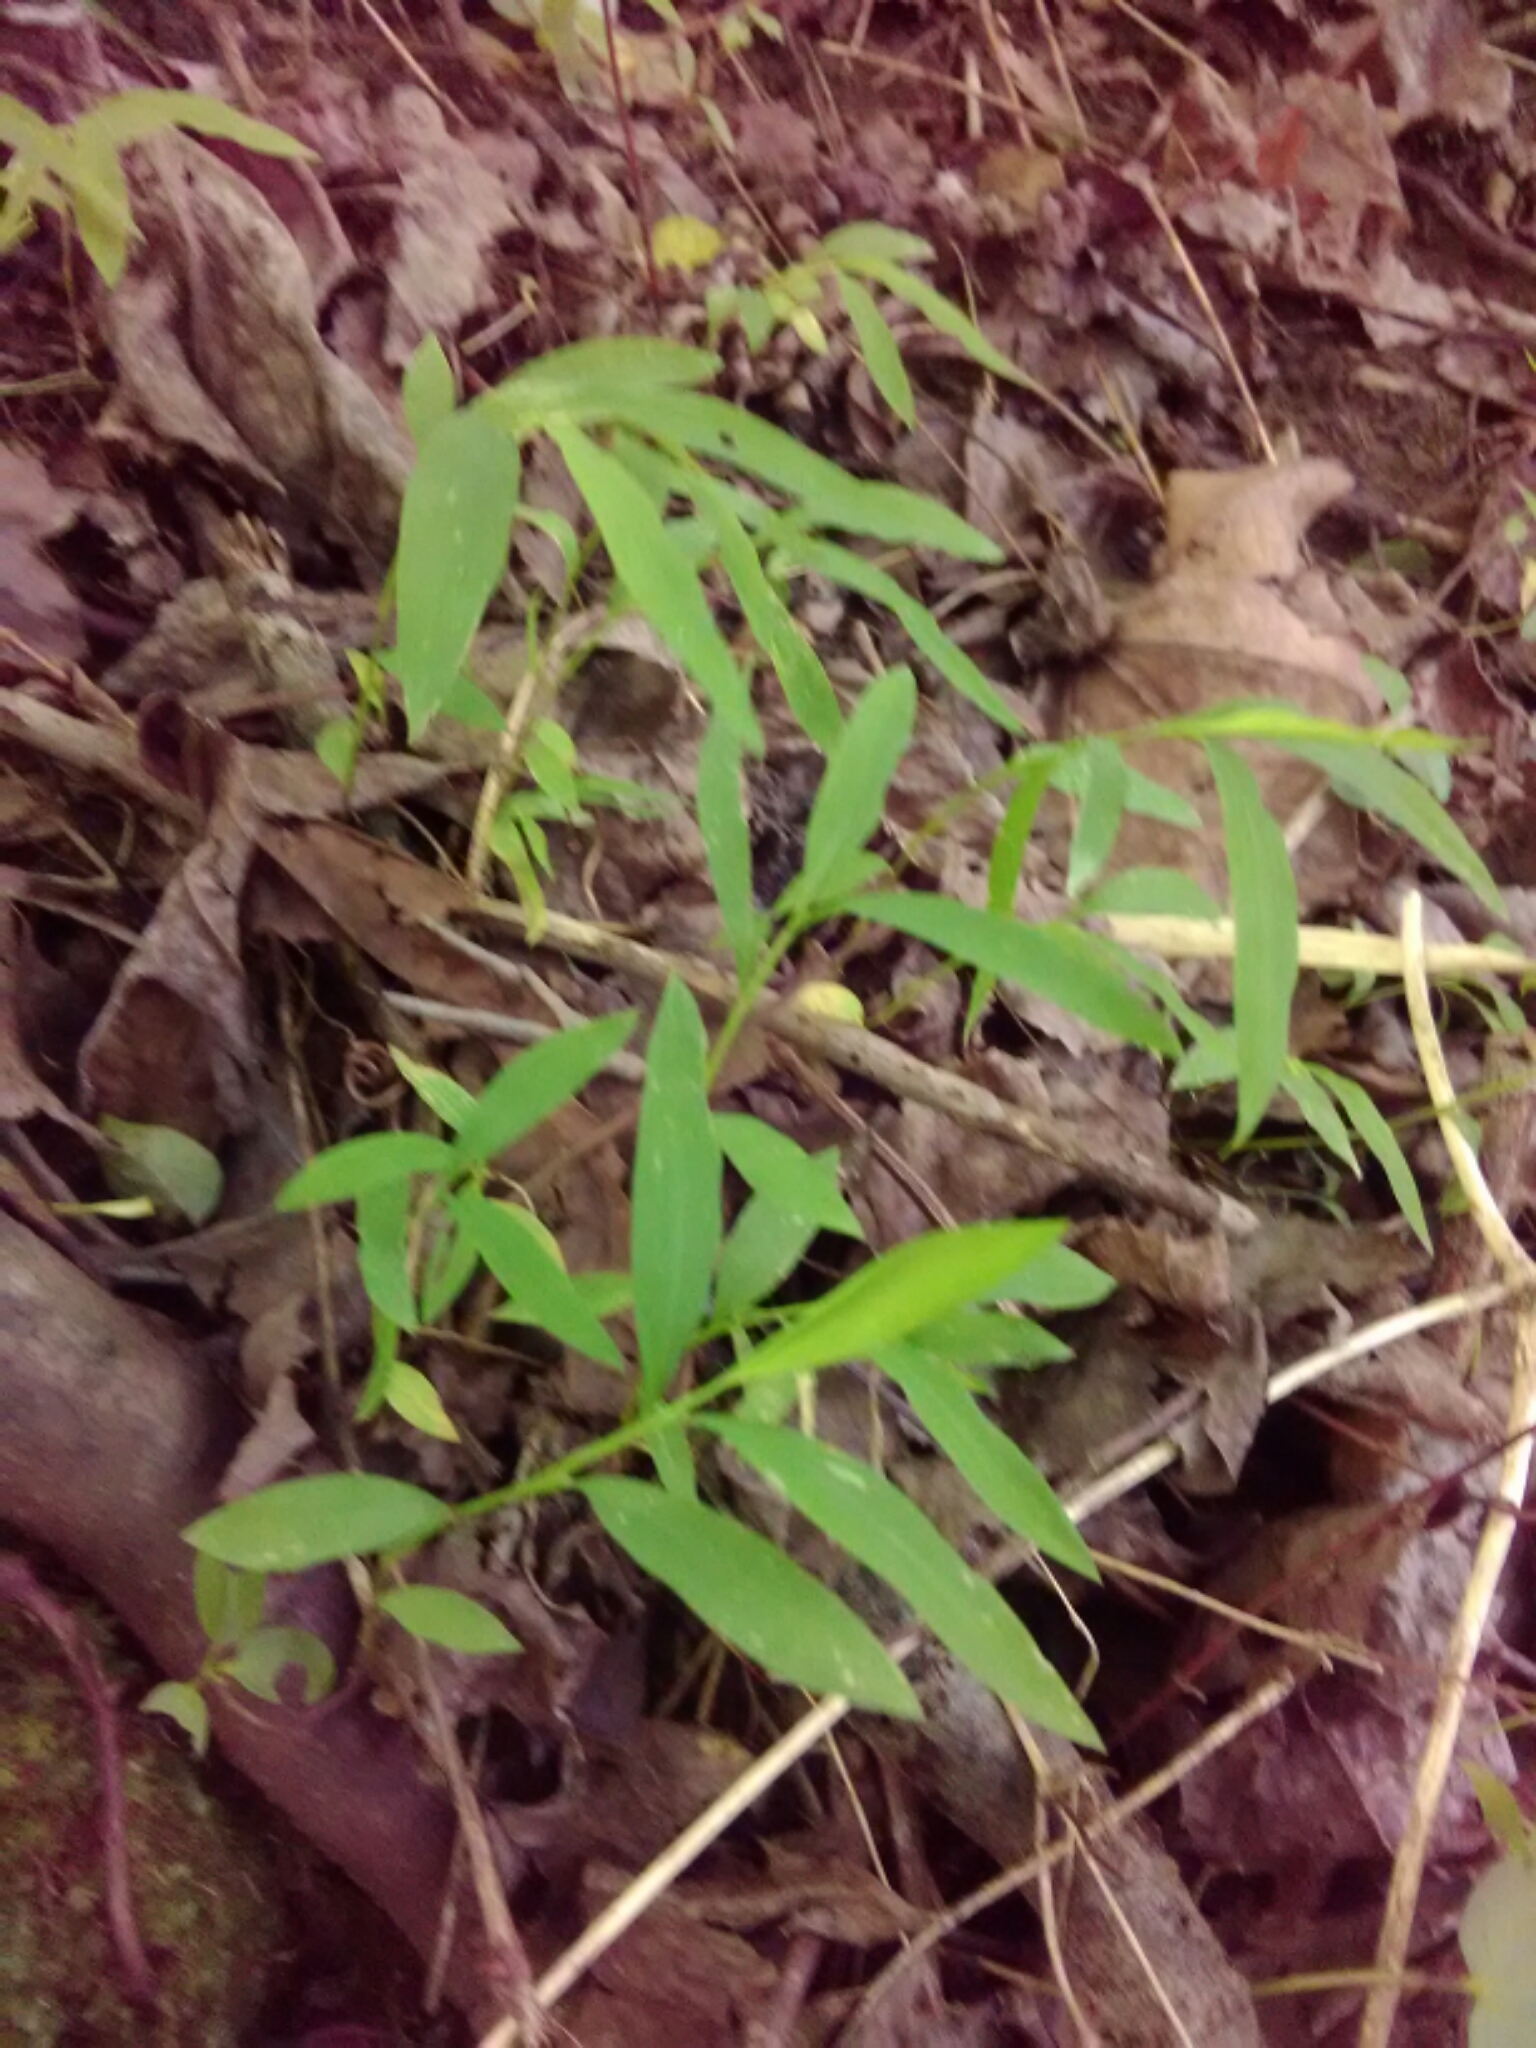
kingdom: Plantae
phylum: Tracheophyta
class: Liliopsida
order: Poales
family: Poaceae
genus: Microstegium
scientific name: Microstegium vimineum
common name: Japanese stiltgrass
